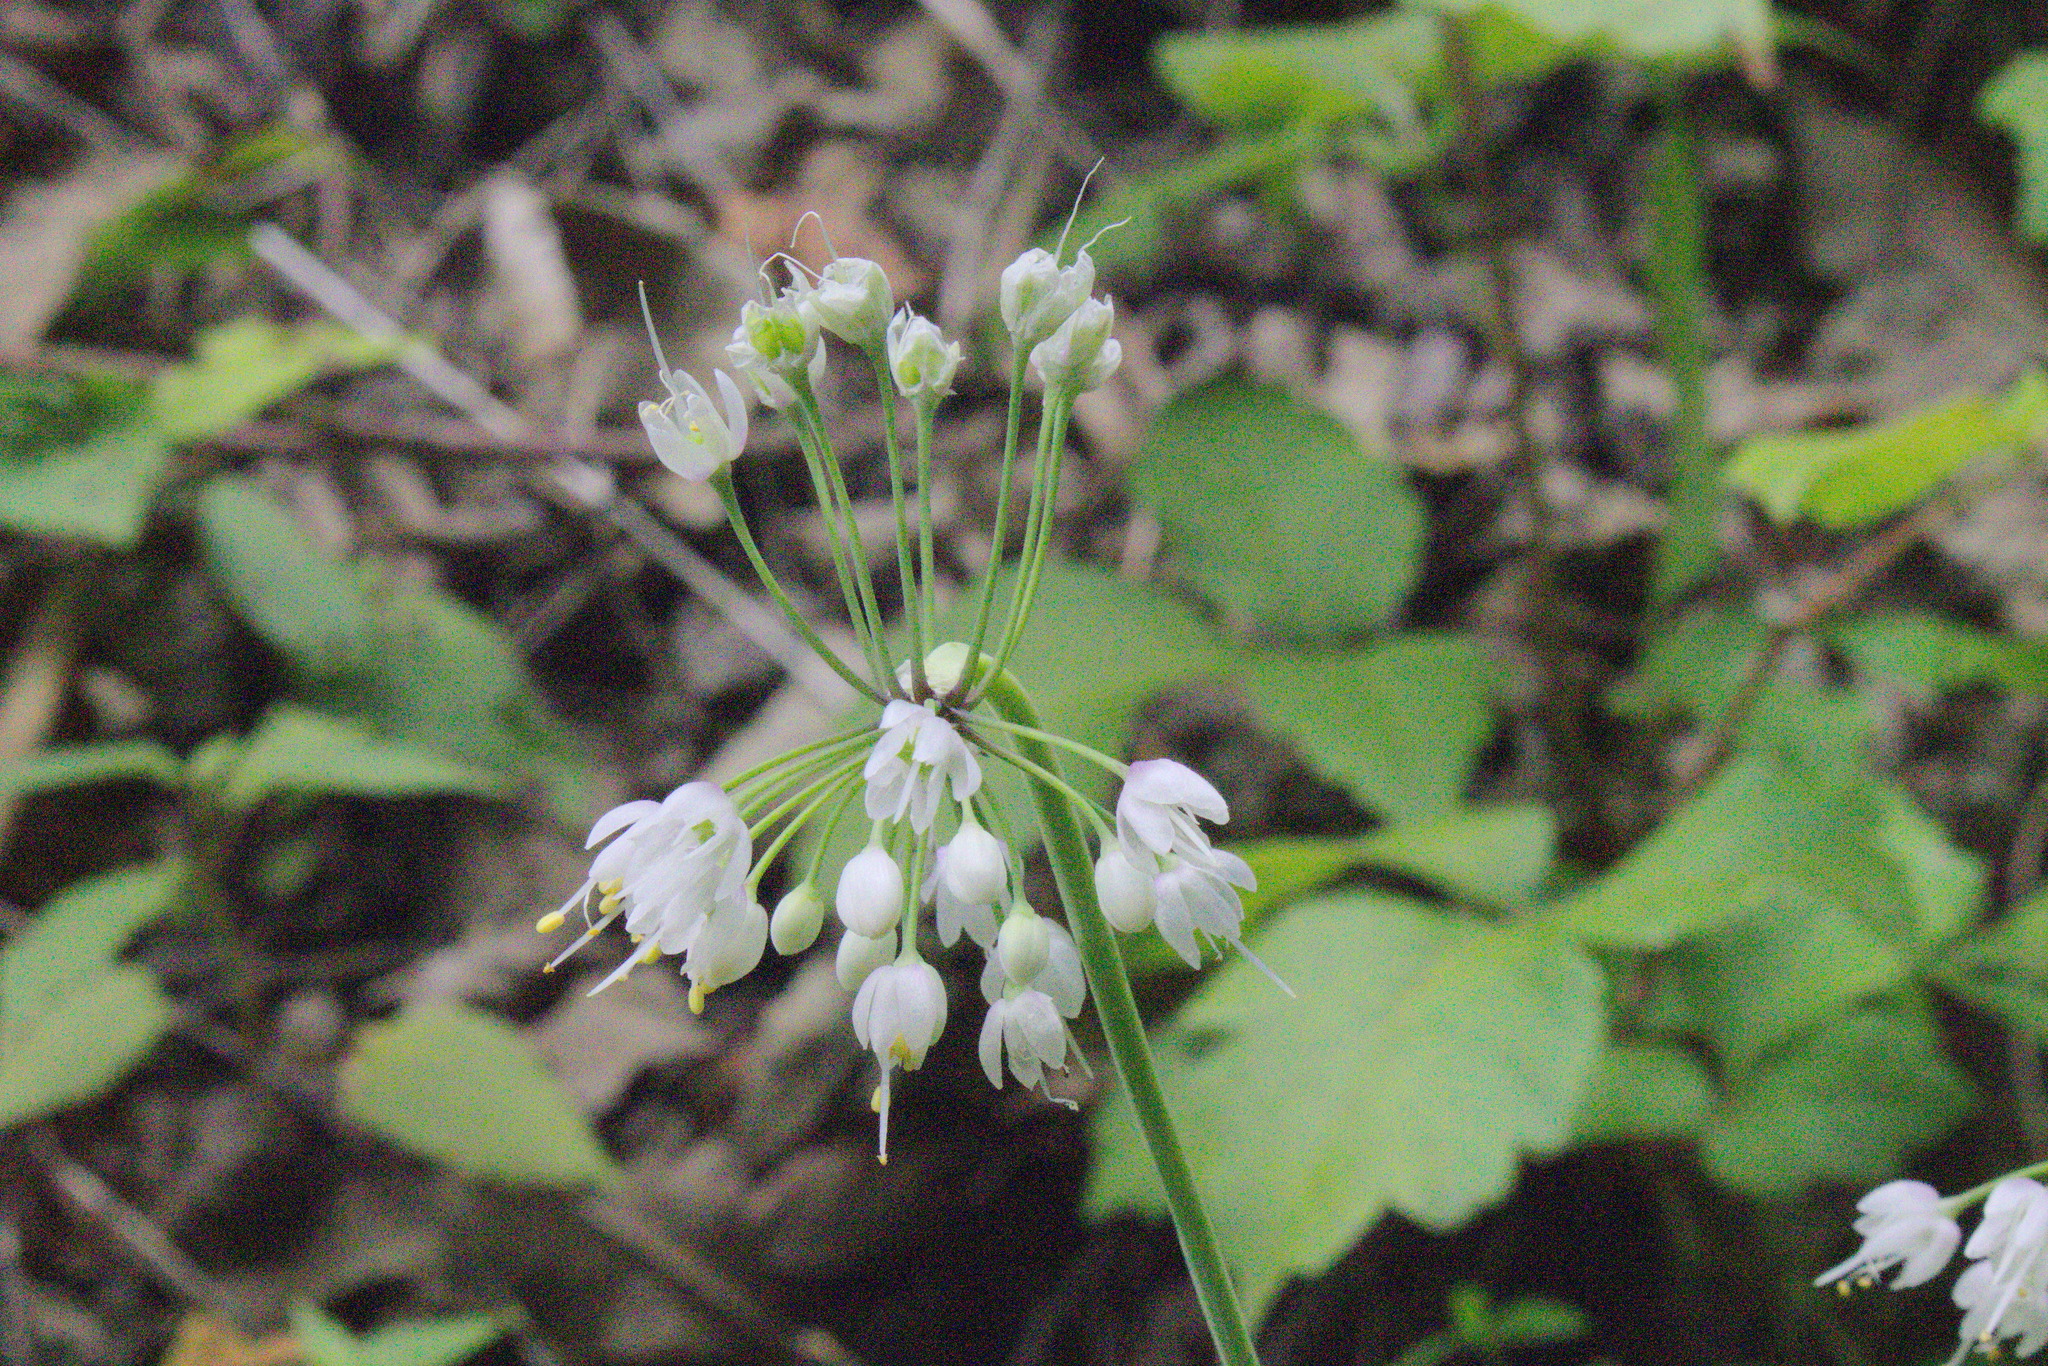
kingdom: Plantae
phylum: Tracheophyta
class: Liliopsida
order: Asparagales
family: Amaryllidaceae
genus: Allium
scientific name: Allium cernuum
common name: Nodding onion
